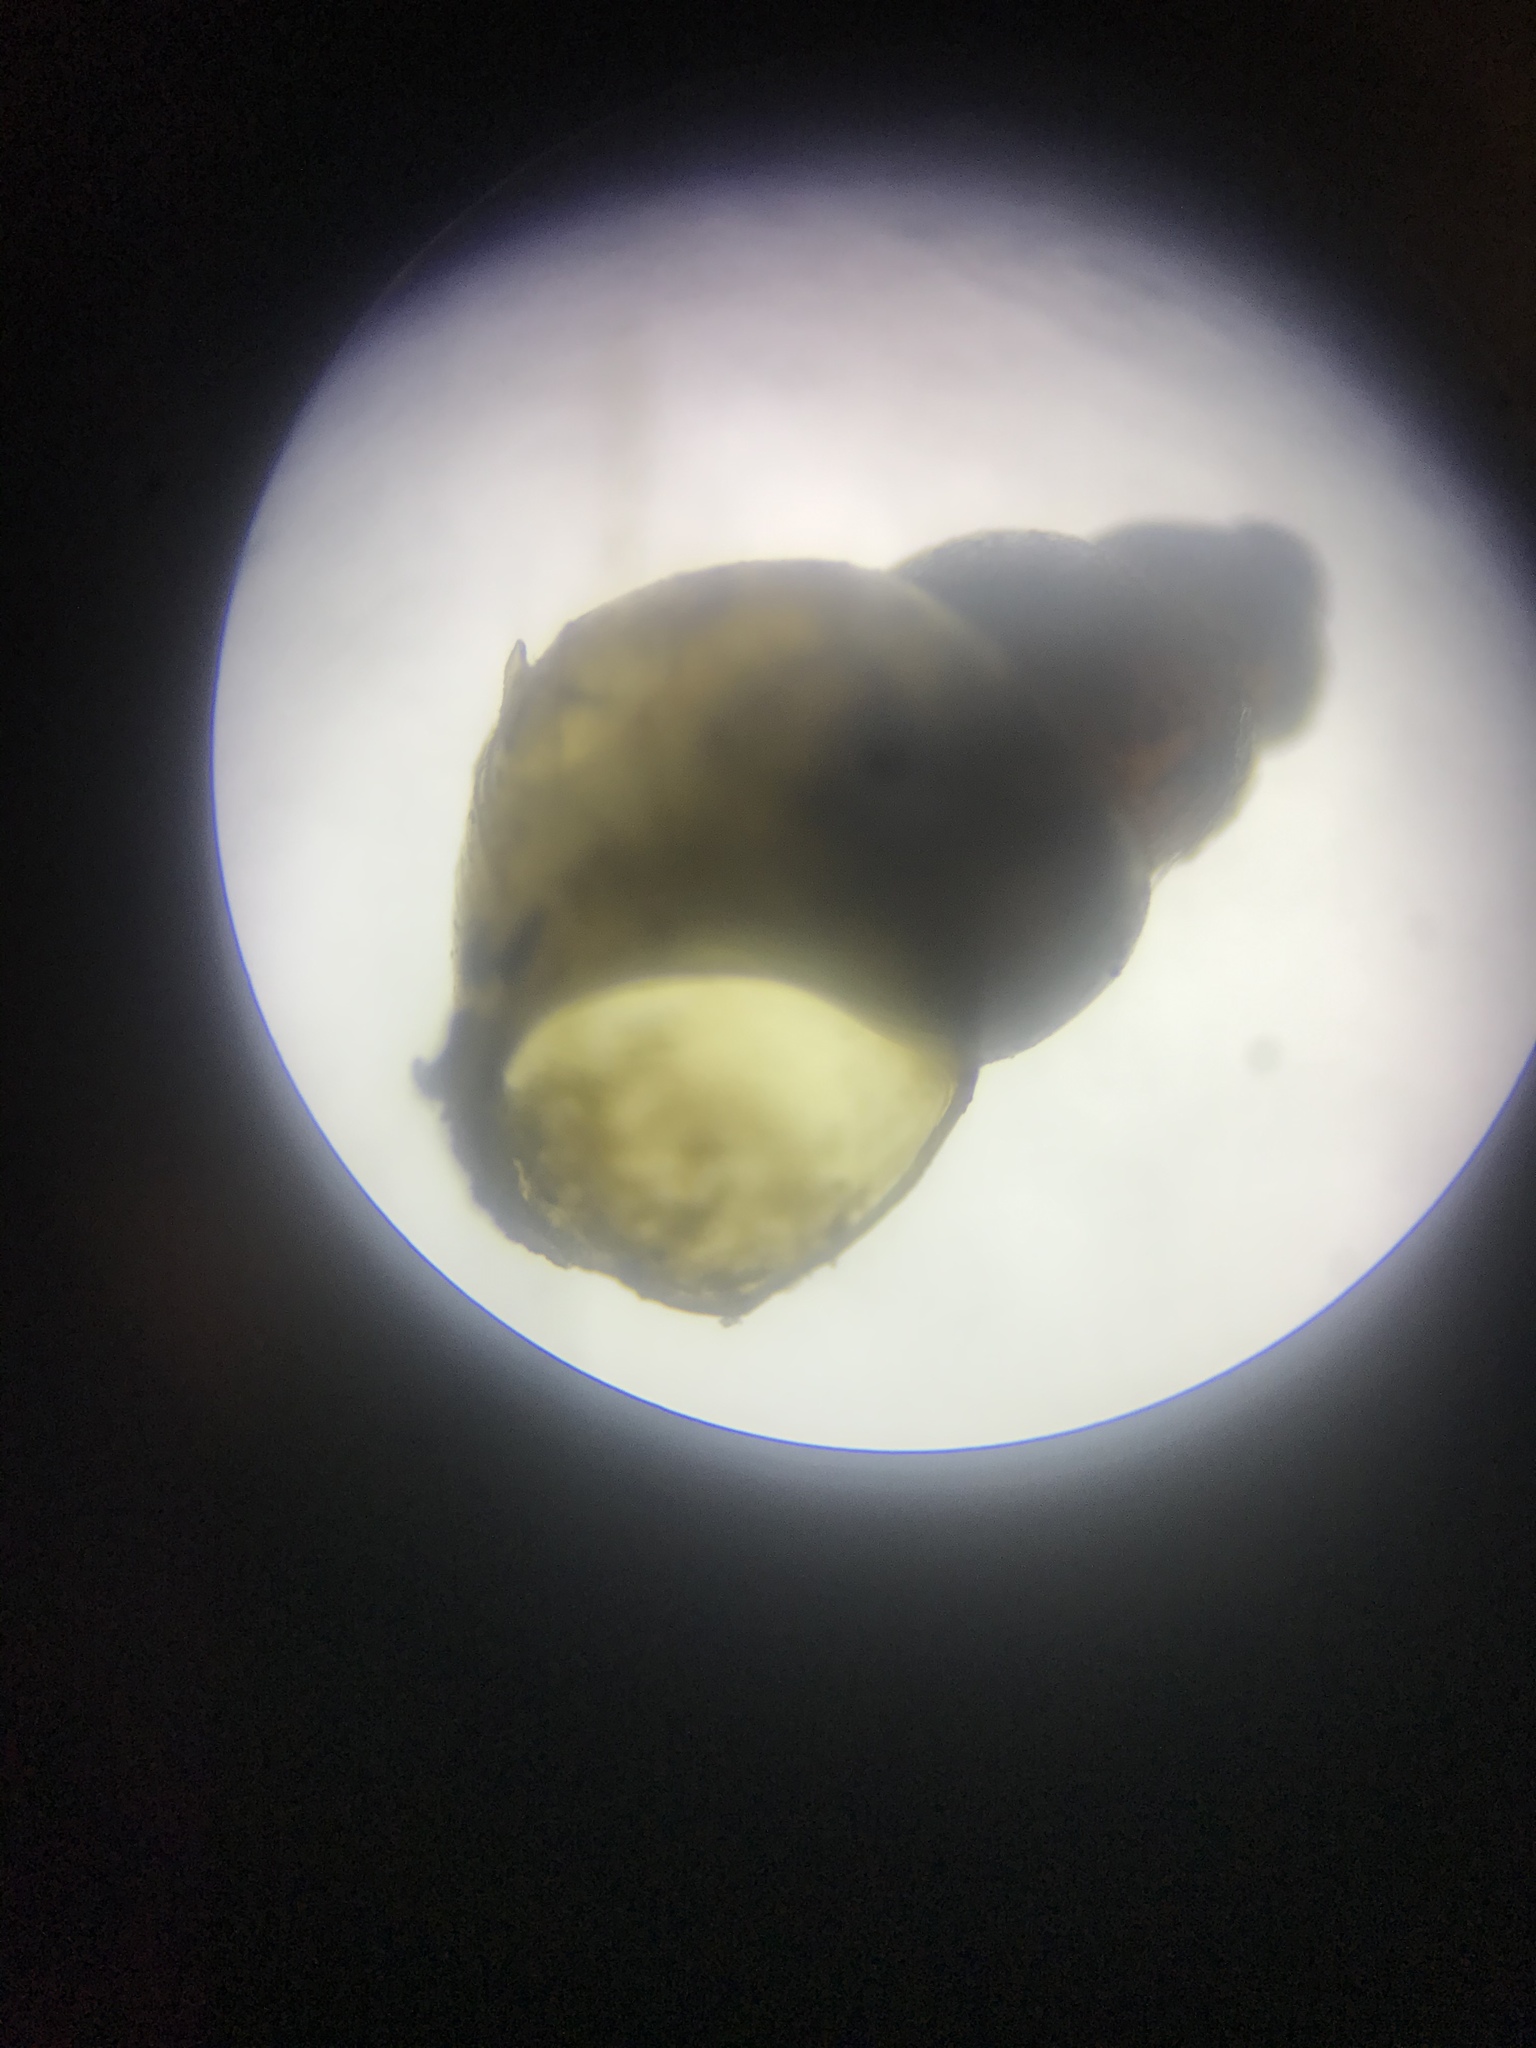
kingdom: Animalia
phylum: Mollusca
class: Gastropoda
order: Littorinimorpha
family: Tateidae
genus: Potamopyrgus
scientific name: Potamopyrgus antipodarum
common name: Jenkins' spire snail
